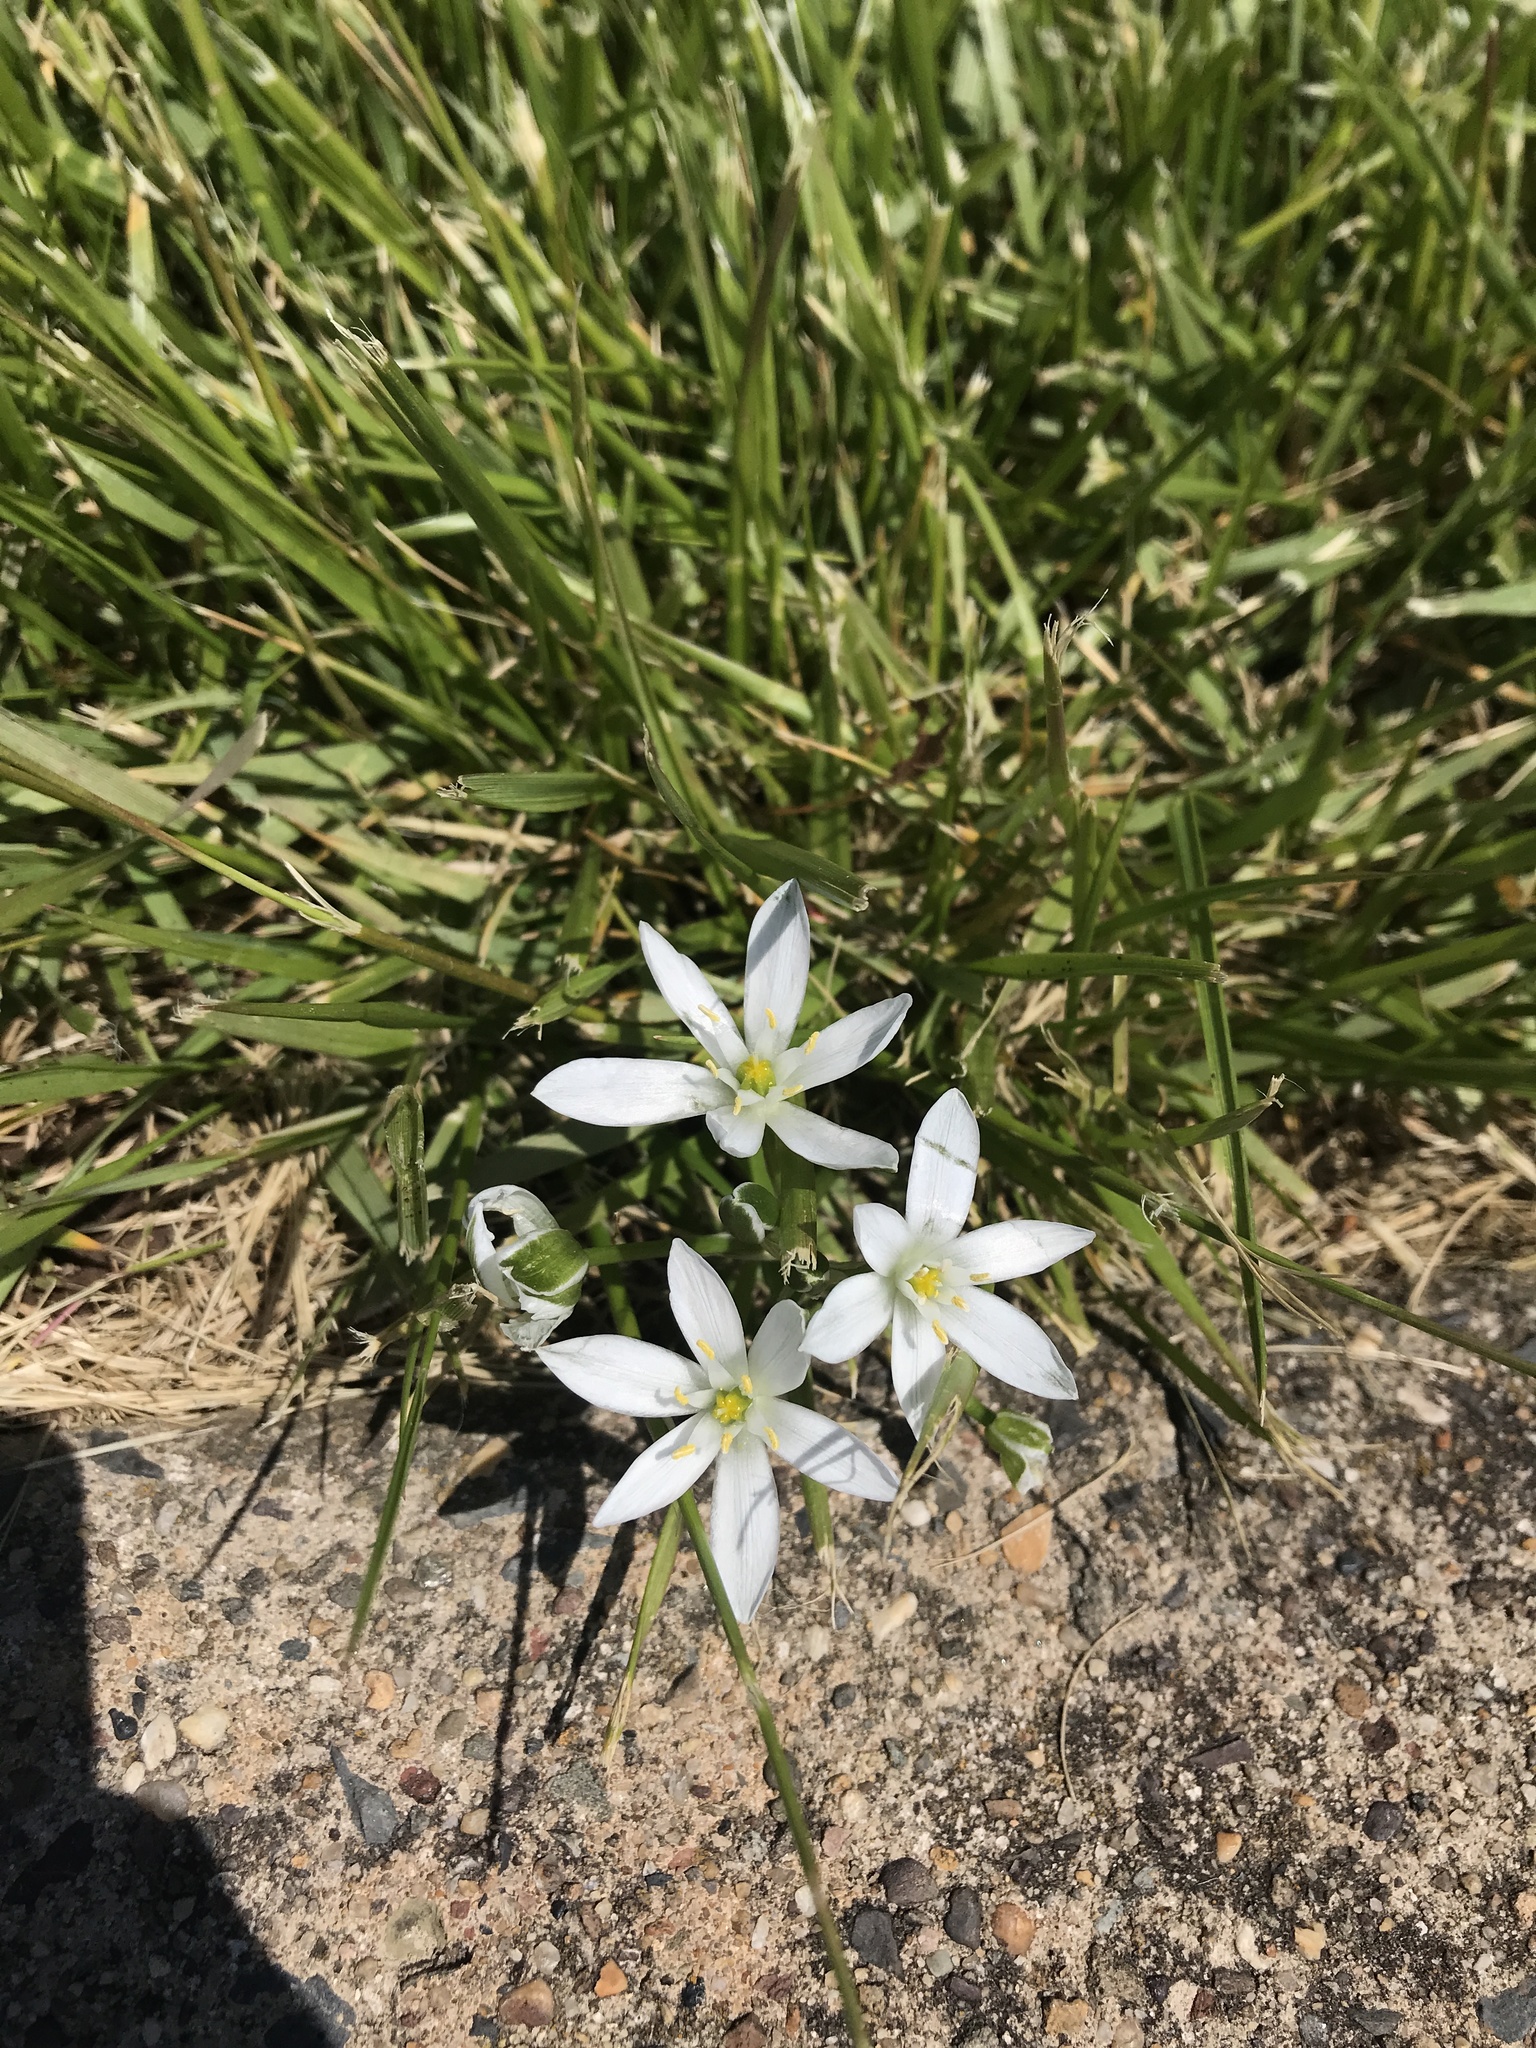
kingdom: Plantae
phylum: Tracheophyta
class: Liliopsida
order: Asparagales
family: Asparagaceae
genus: Ornithogalum
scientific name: Ornithogalum umbellatum
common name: Garden star-of-bethlehem
